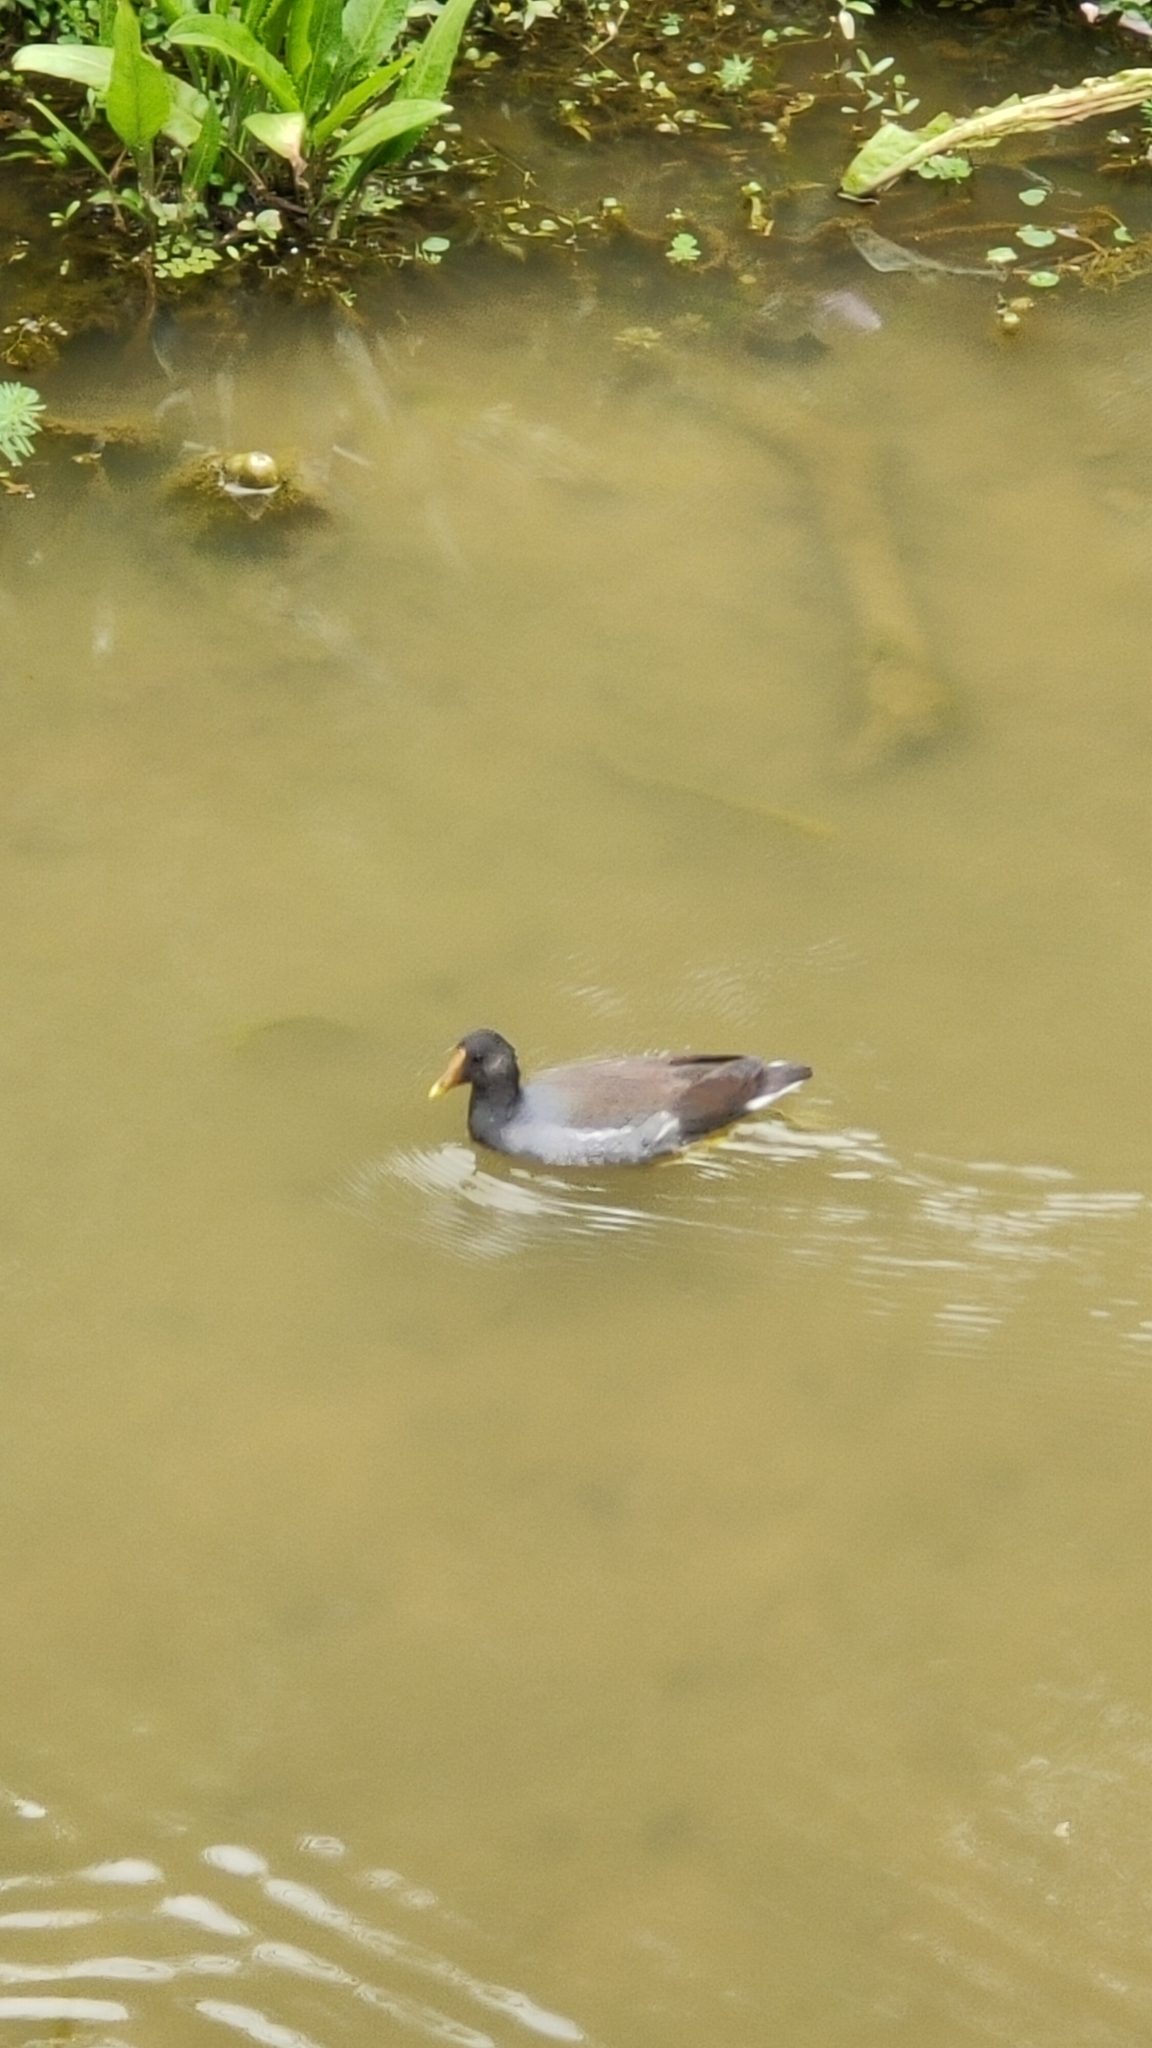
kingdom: Animalia
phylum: Chordata
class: Aves
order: Gruiformes
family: Rallidae
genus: Gallinula
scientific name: Gallinula chloropus
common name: Common moorhen
